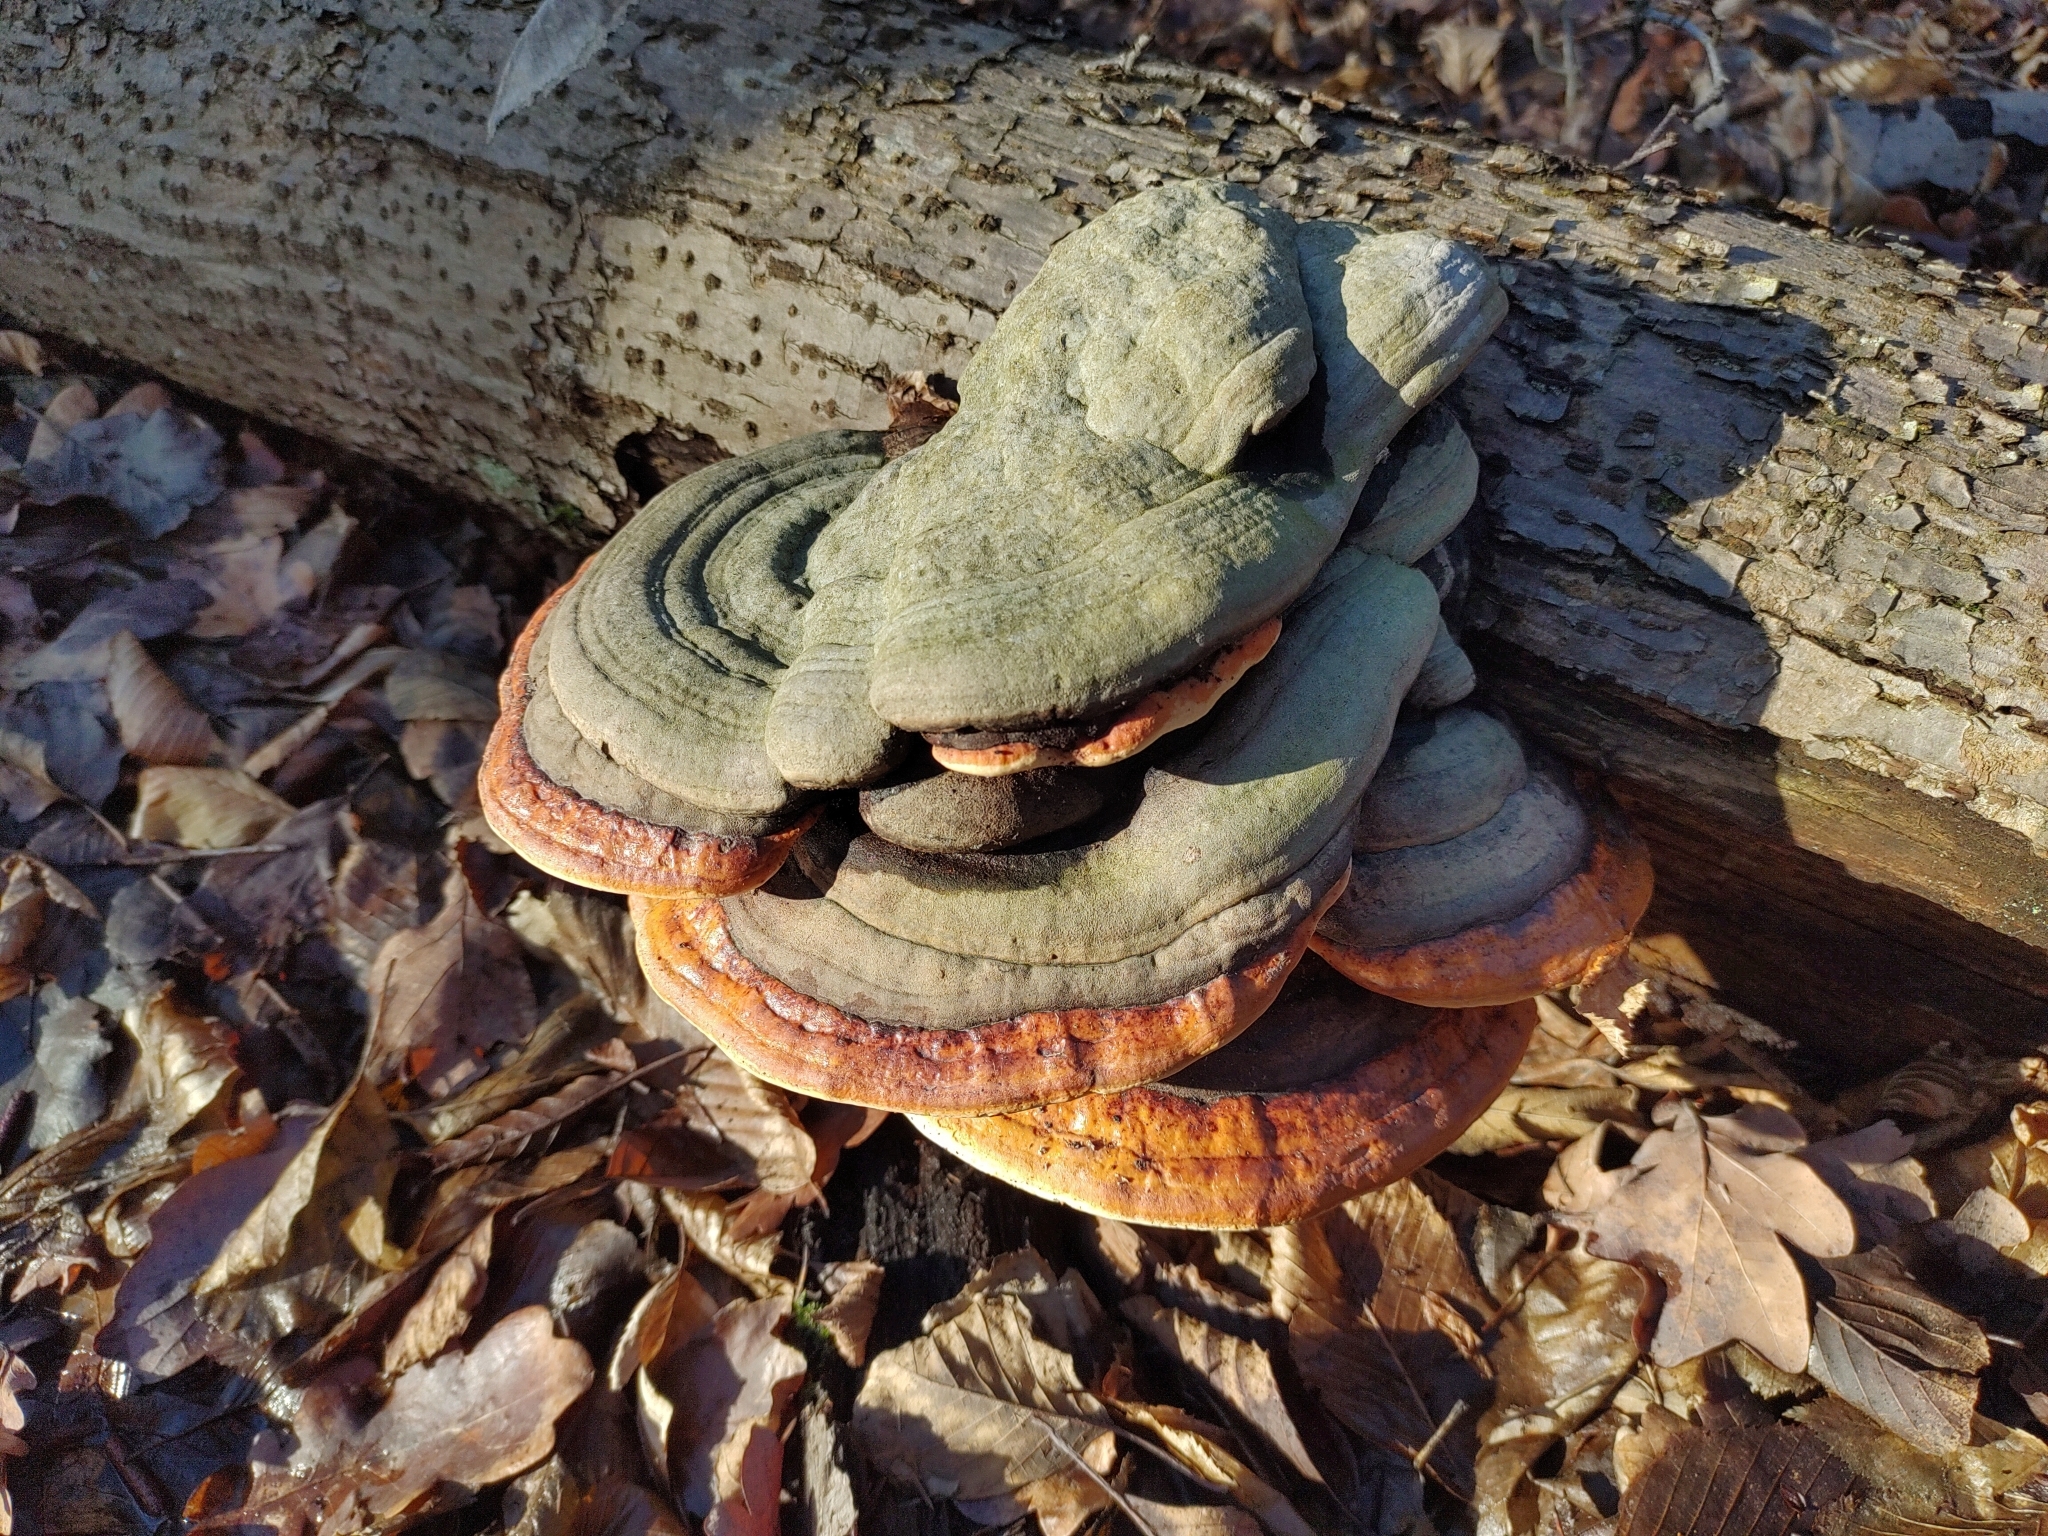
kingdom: Fungi
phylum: Basidiomycota
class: Agaricomycetes
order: Polyporales
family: Fomitopsidaceae
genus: Fomitopsis
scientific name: Fomitopsis pinicola
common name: Red-belted bracket
